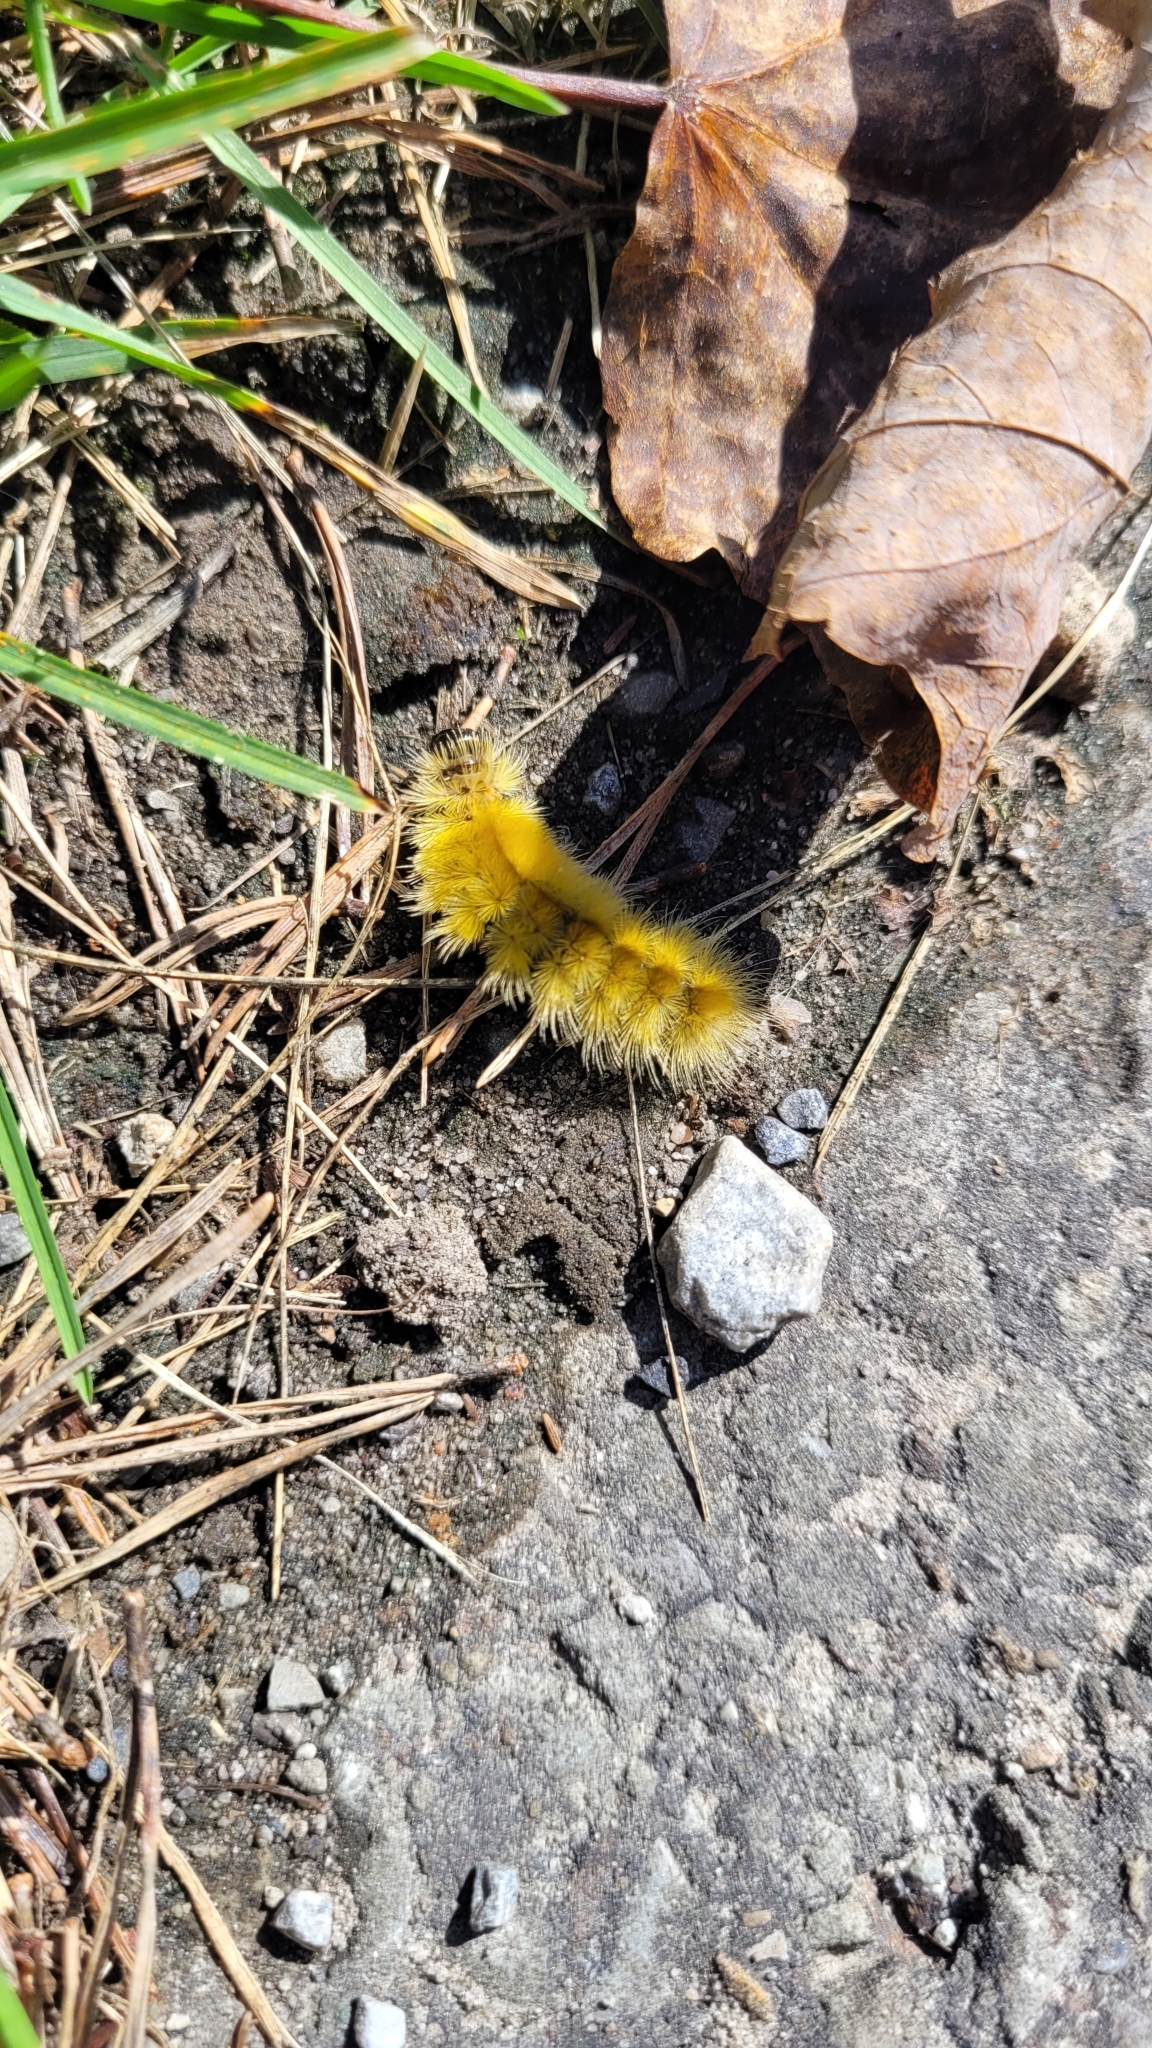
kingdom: Animalia
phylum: Arthropoda
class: Insecta
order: Lepidoptera
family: Erebidae
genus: Halysidota
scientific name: Halysidota tessellaris
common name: Banded tussock moth
